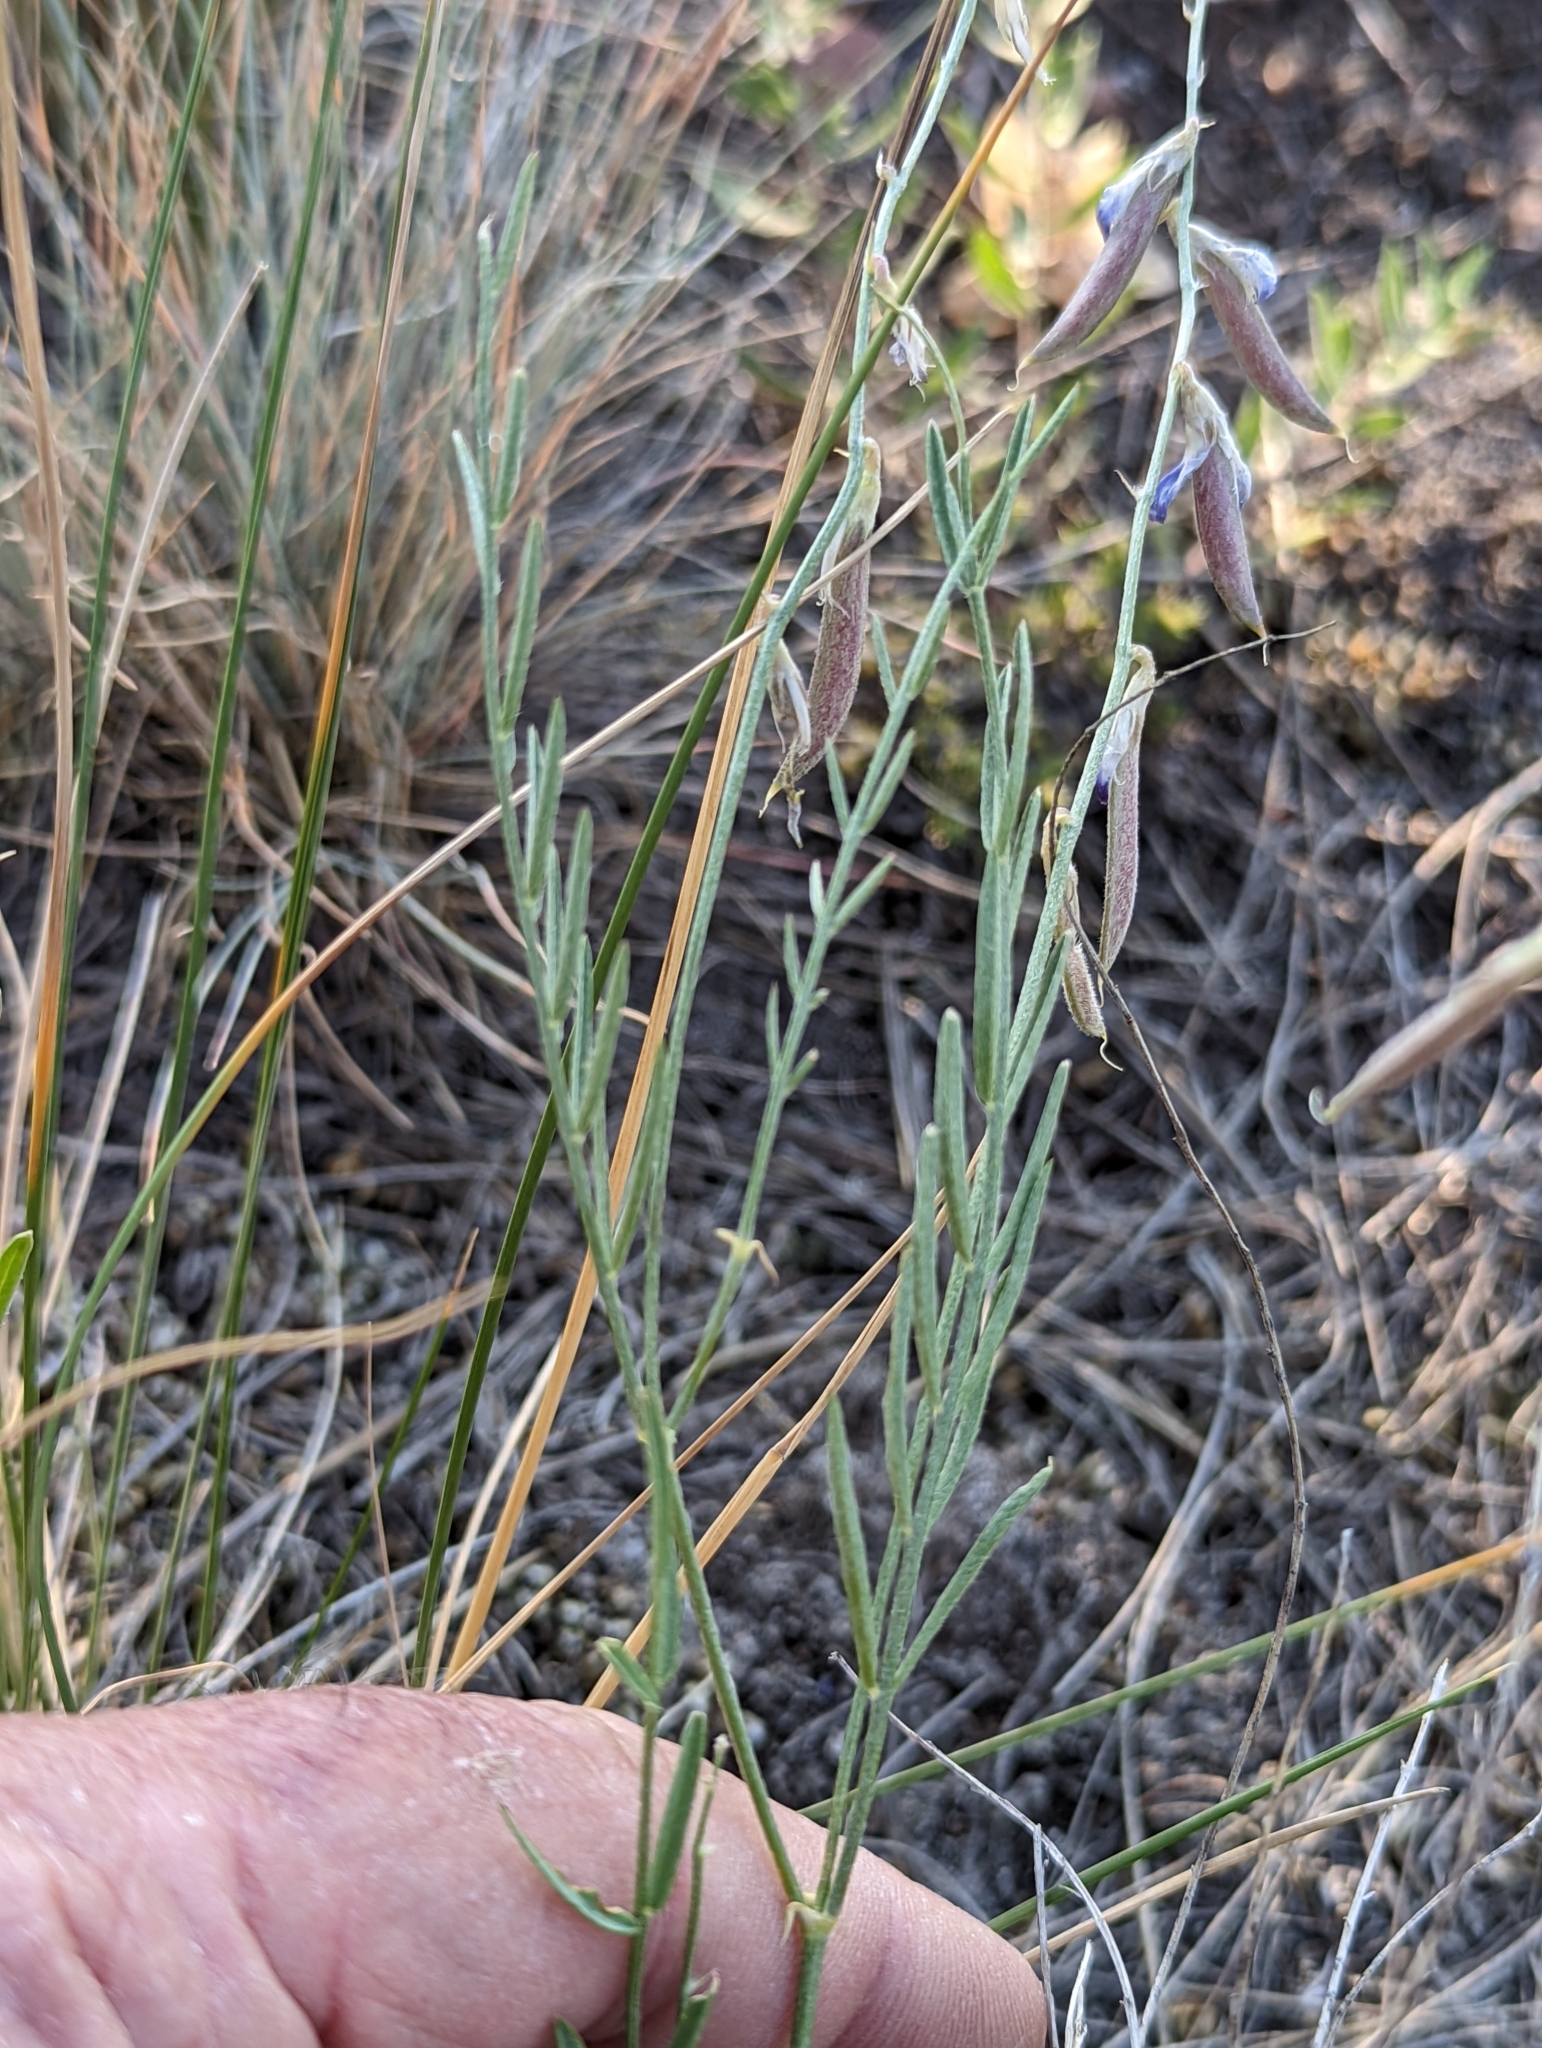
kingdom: Plantae
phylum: Tracheophyta
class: Magnoliopsida
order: Fabales
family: Fabaceae
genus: Astragalus
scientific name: Astragalus miser
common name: Timber milkvetch
